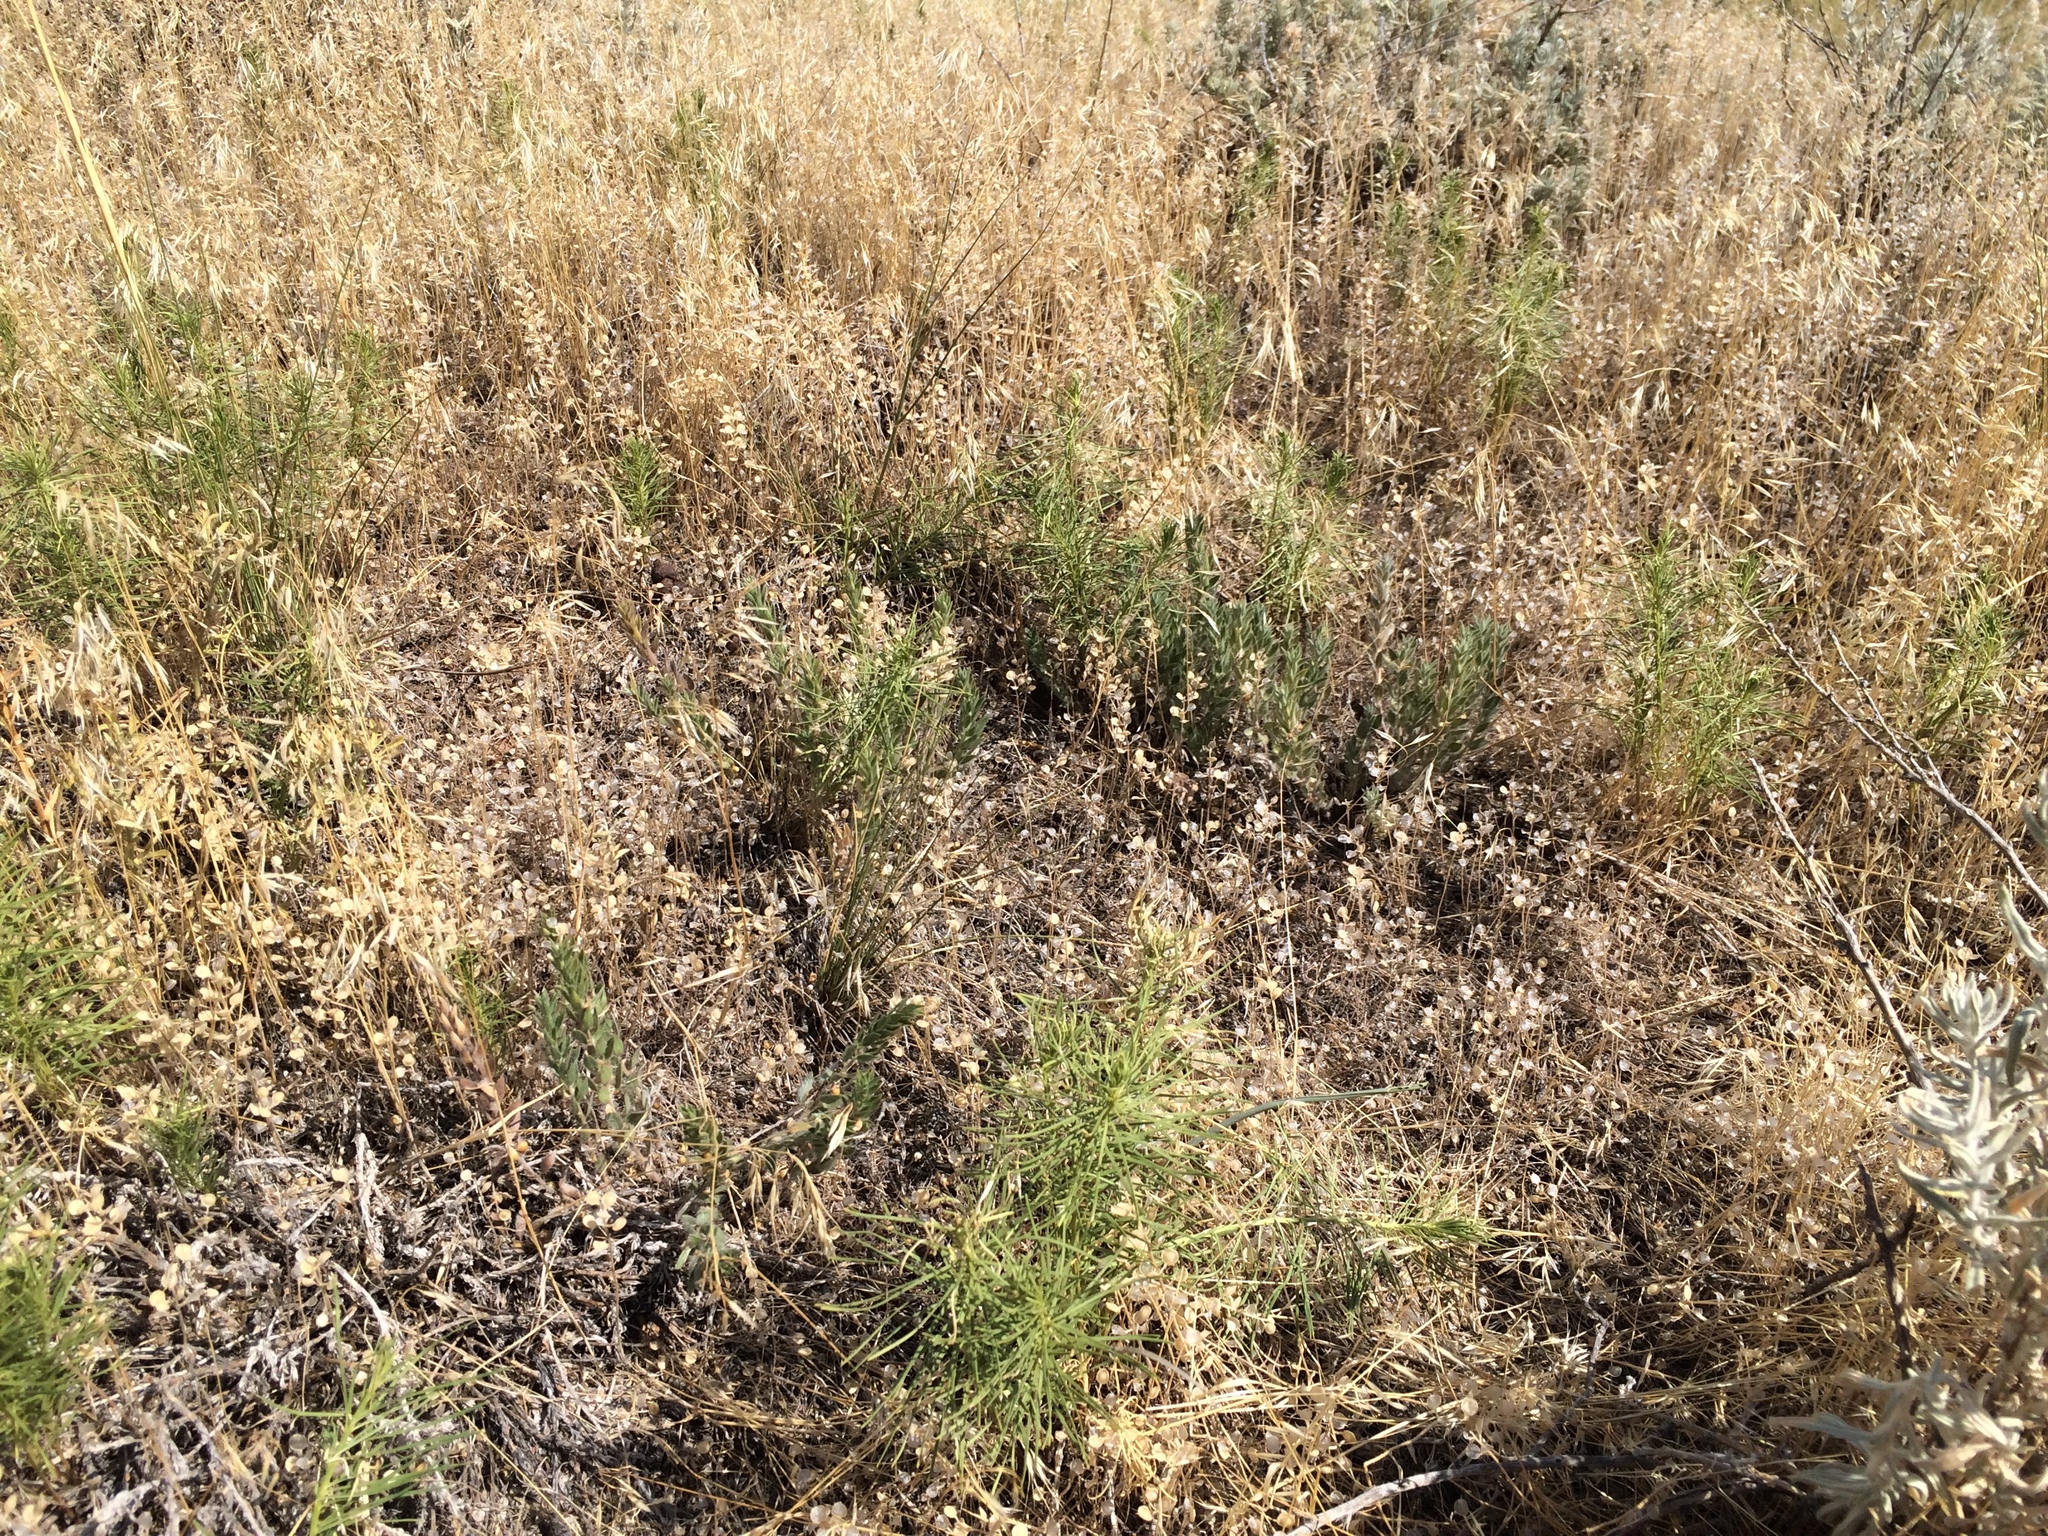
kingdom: Plantae
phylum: Tracheophyta
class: Magnoliopsida
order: Gentianales
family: Apocynaceae
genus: Asclepias
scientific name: Asclepias pumila
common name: Dwarf milkweed
